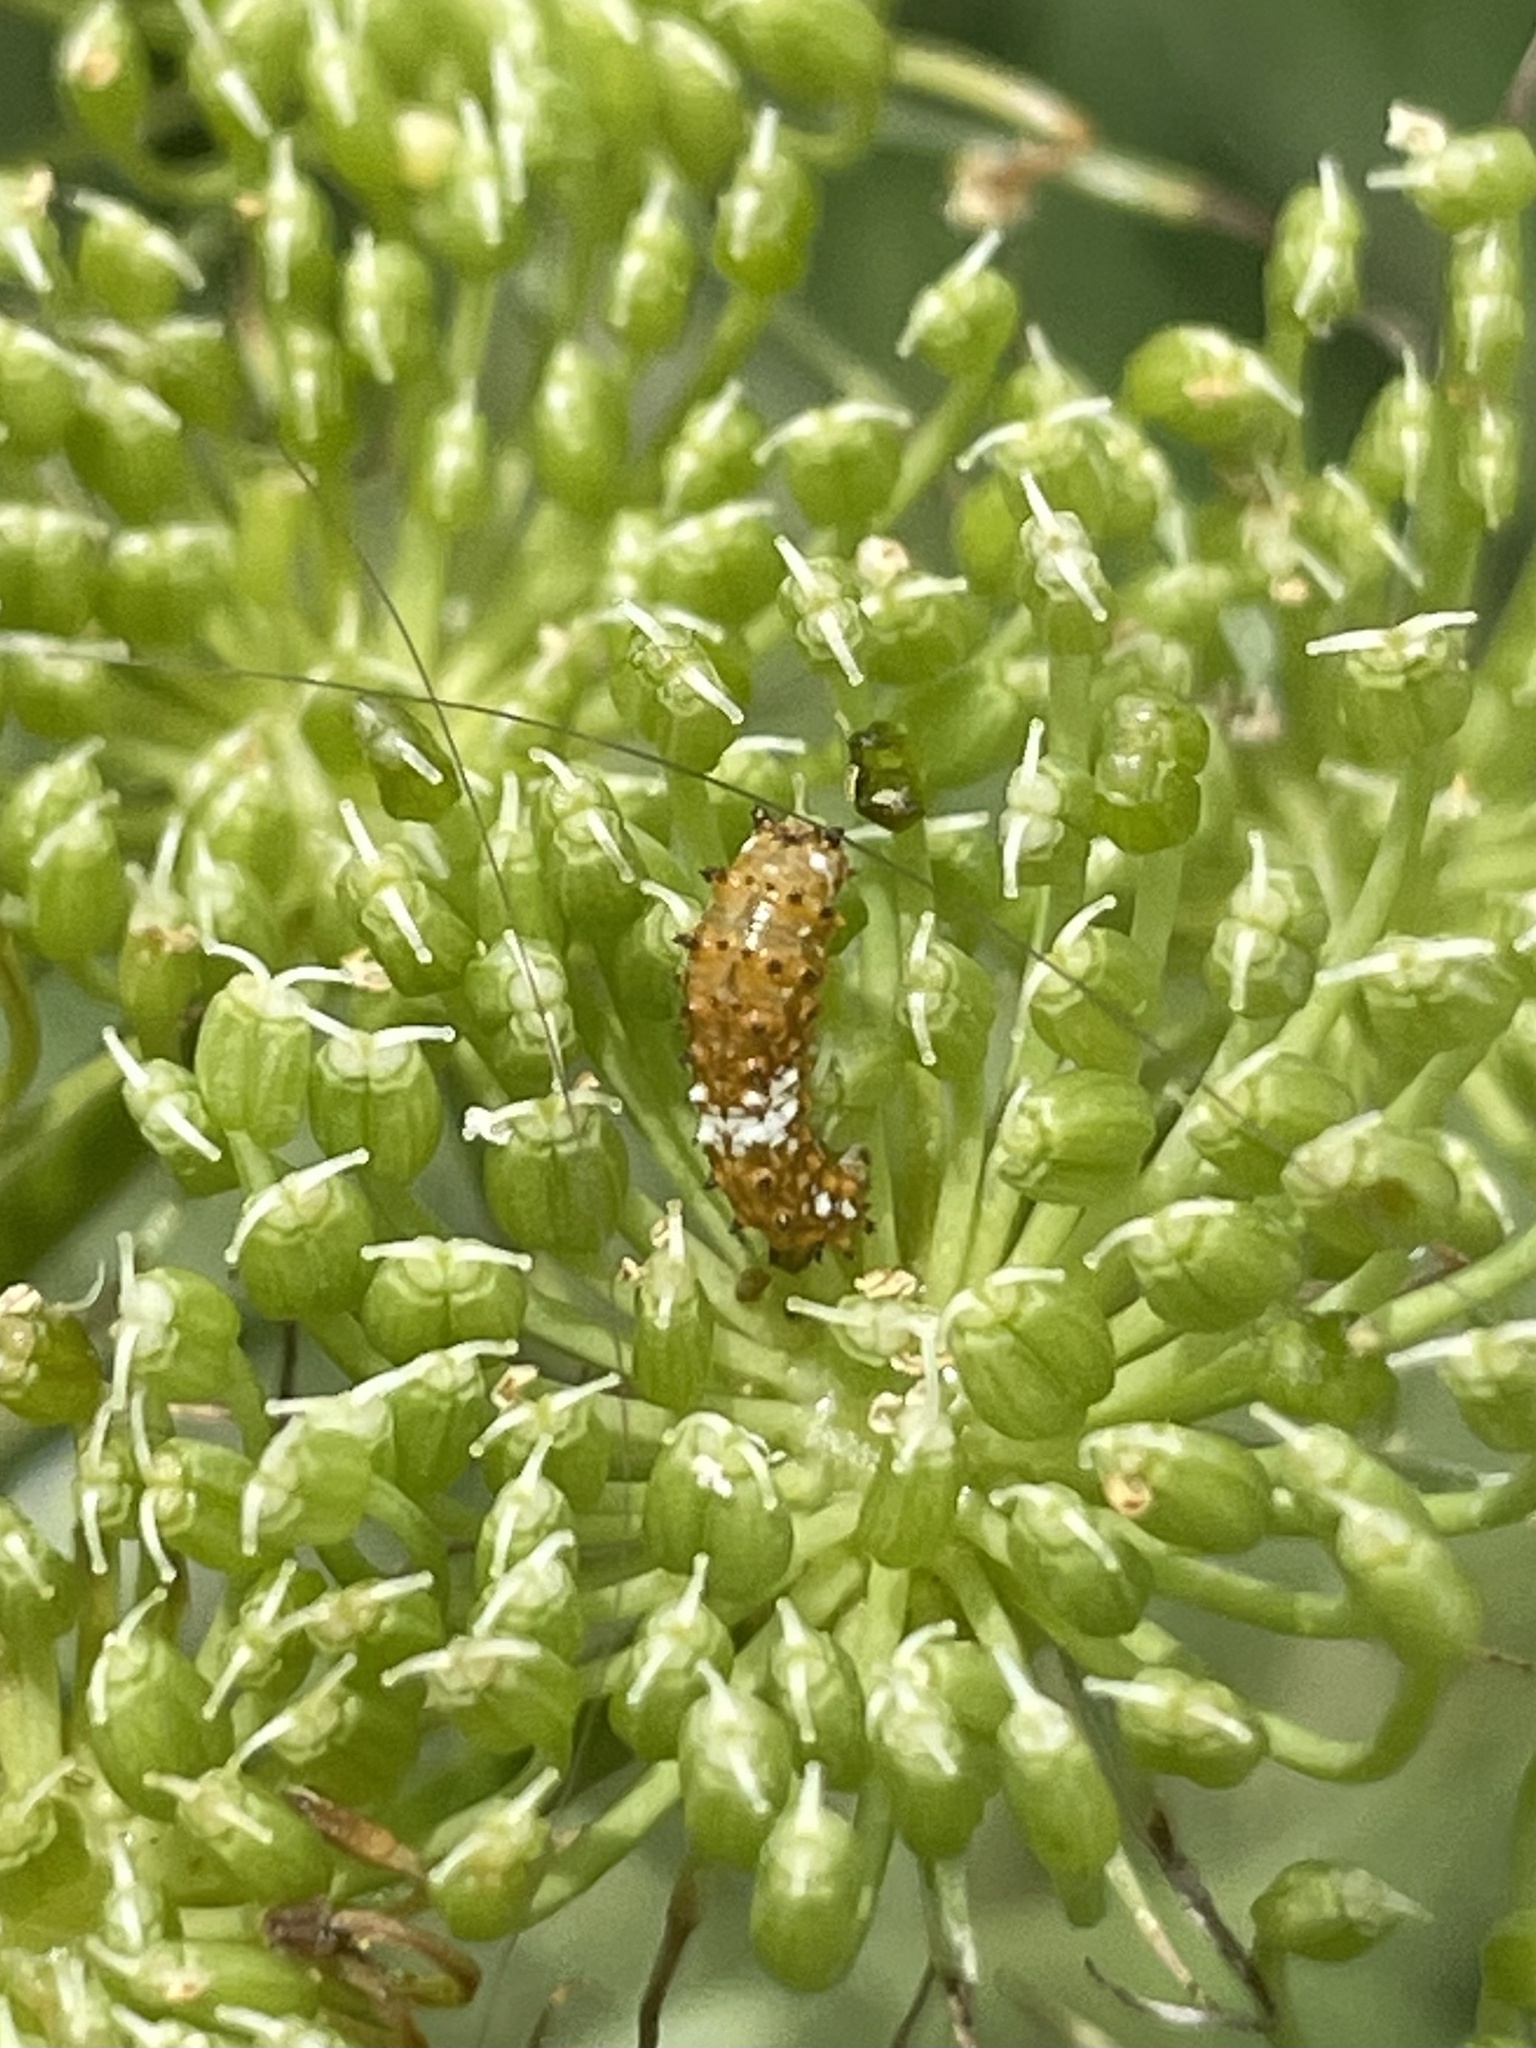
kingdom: Animalia
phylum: Arthropoda
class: Insecta
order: Lepidoptera
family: Papilionidae
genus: Papilio
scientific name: Papilio polyxenes
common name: Black swallowtail
